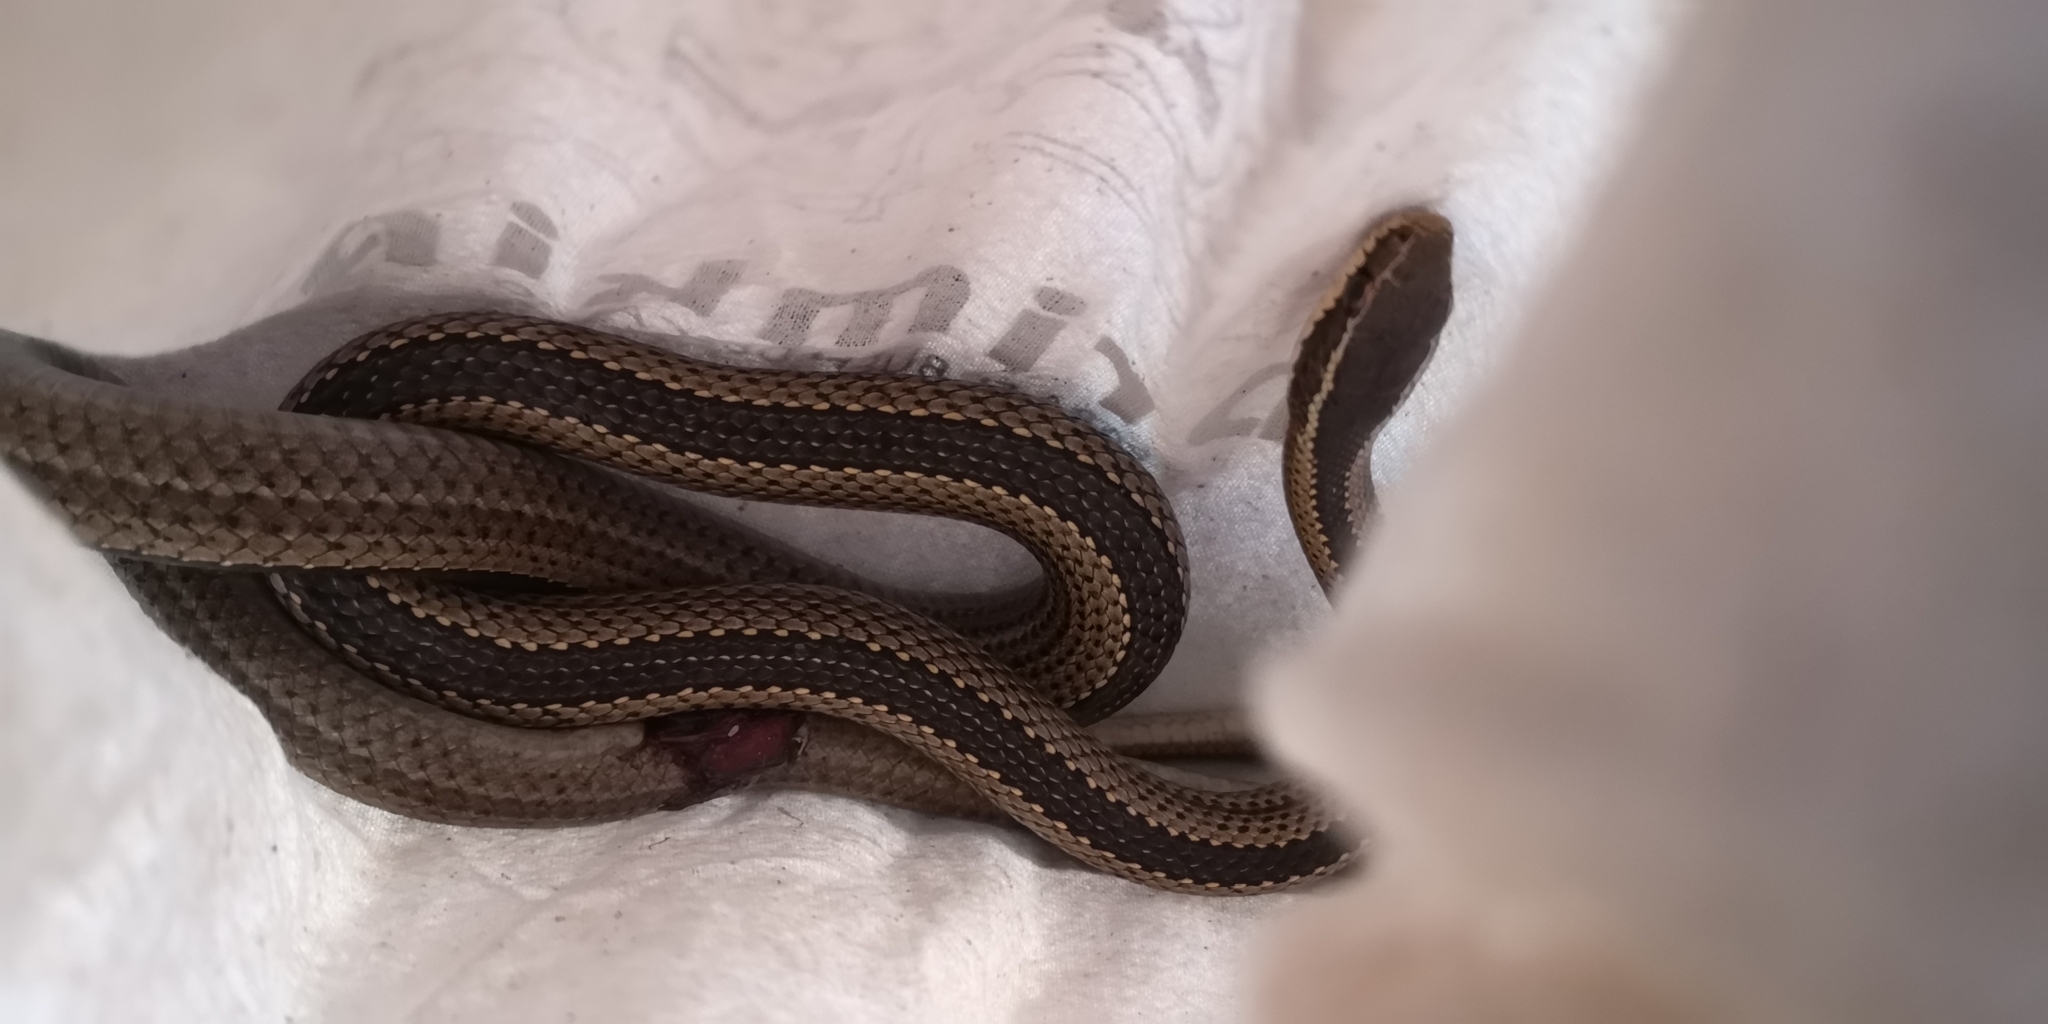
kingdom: Animalia
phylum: Chordata
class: Squamata
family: Colubridae
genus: Philodryas
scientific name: Philodryas chamissonis
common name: Chilean green racer
